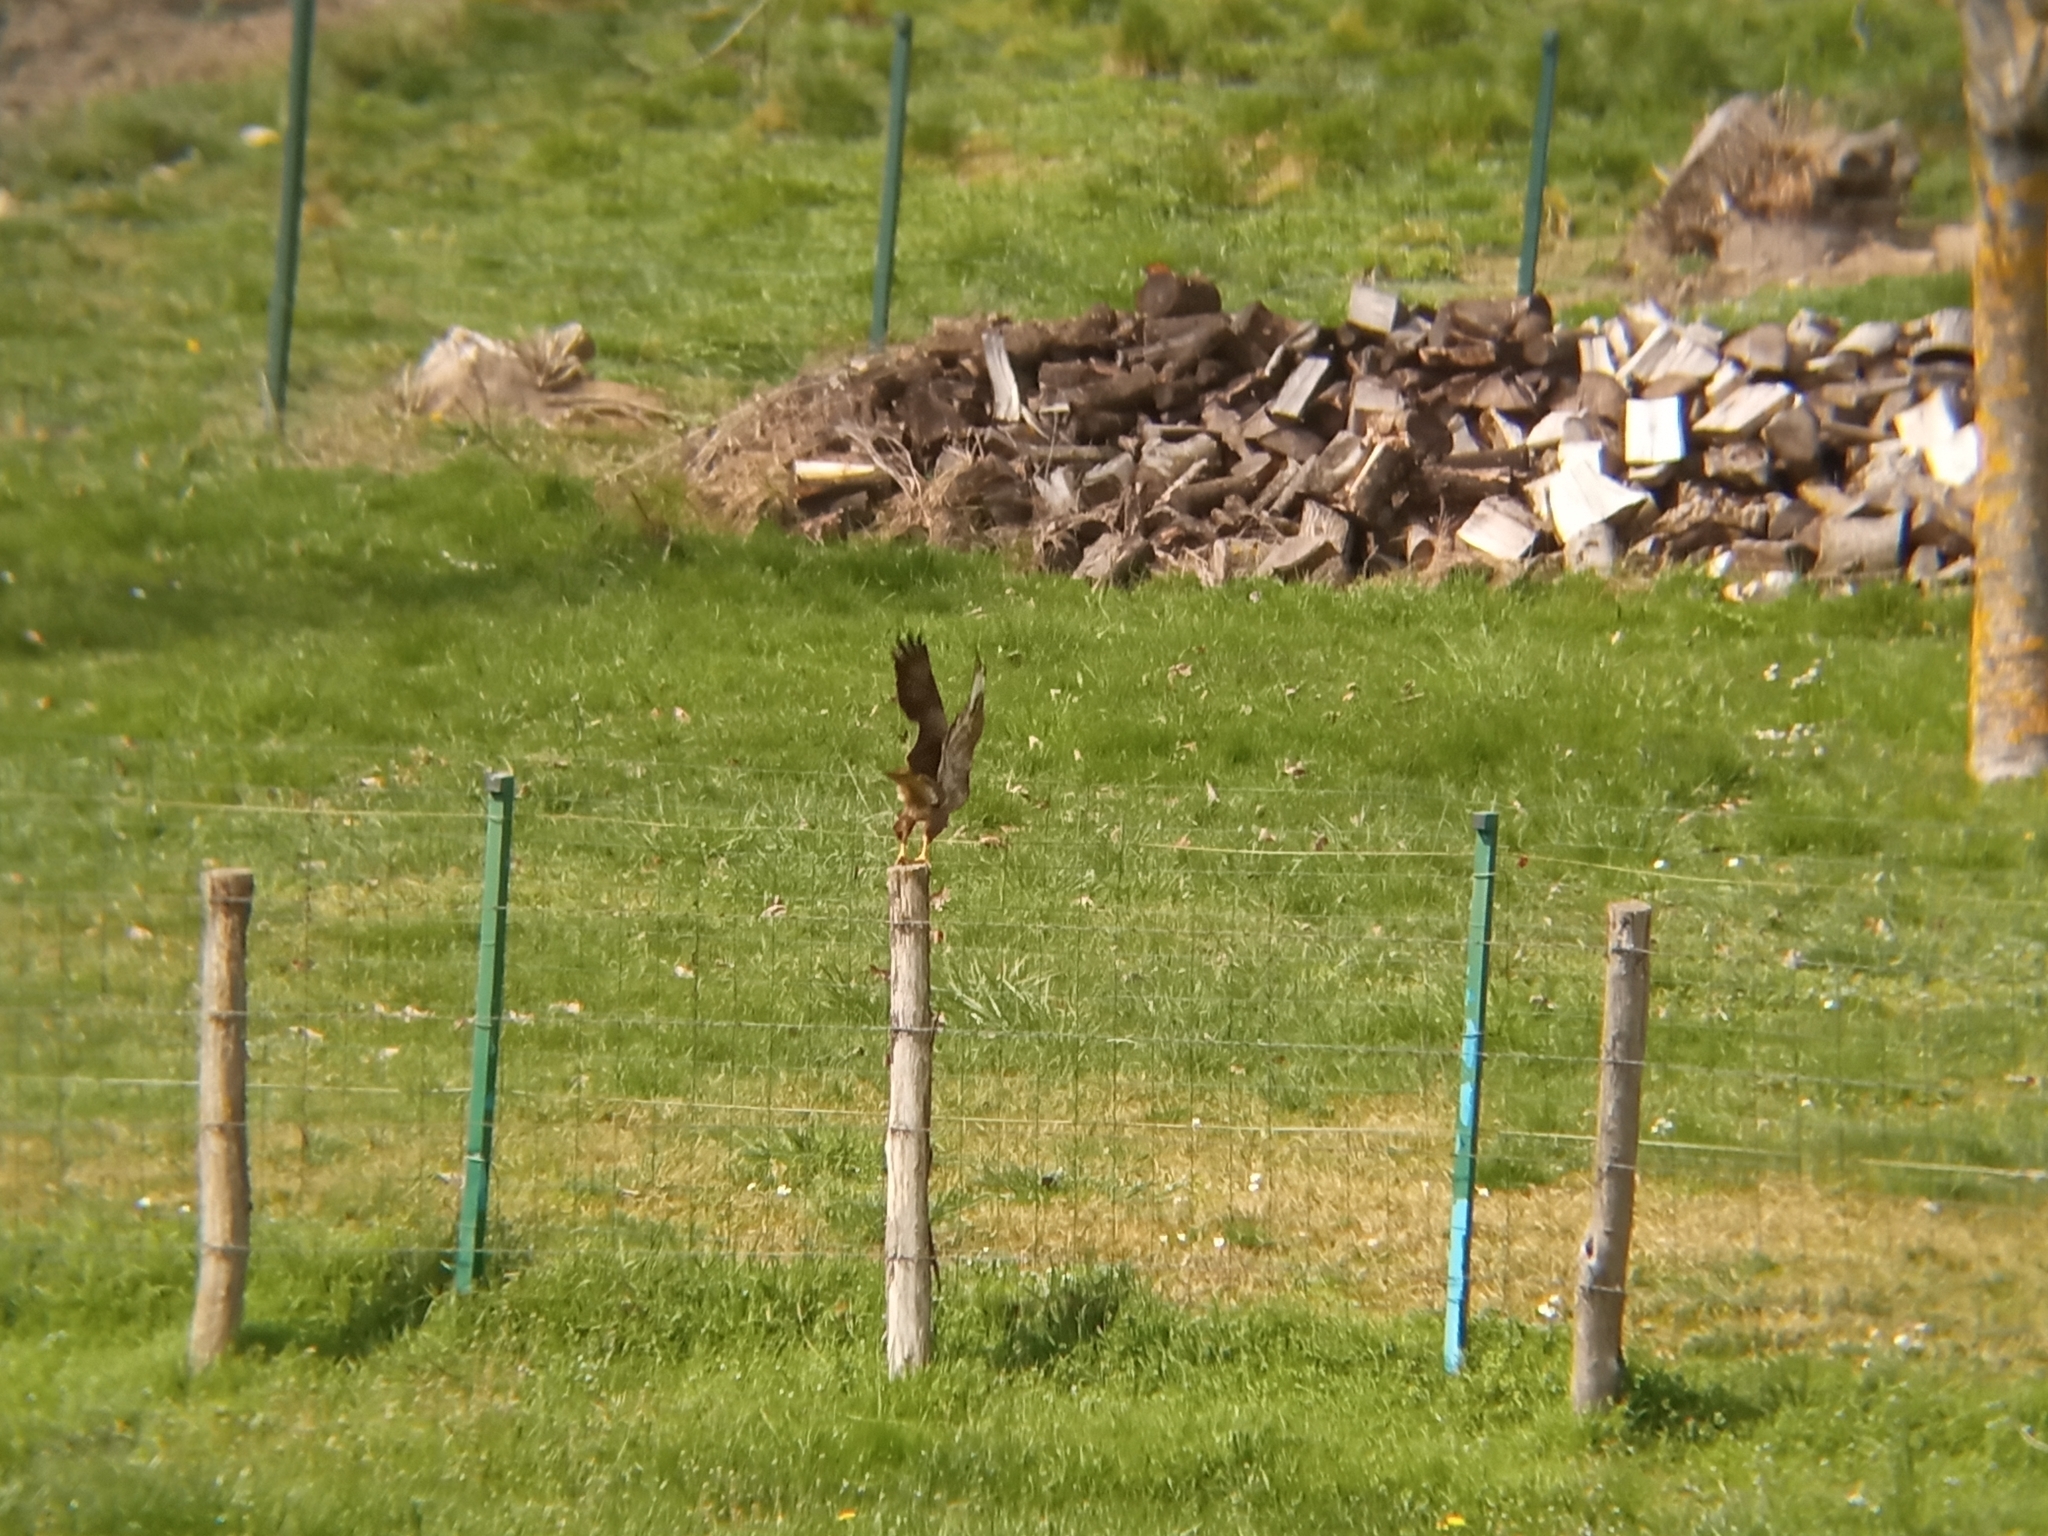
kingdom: Animalia
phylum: Chordata
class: Aves
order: Accipitriformes
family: Accipitridae
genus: Buteo
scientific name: Buteo buteo
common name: Common buzzard
